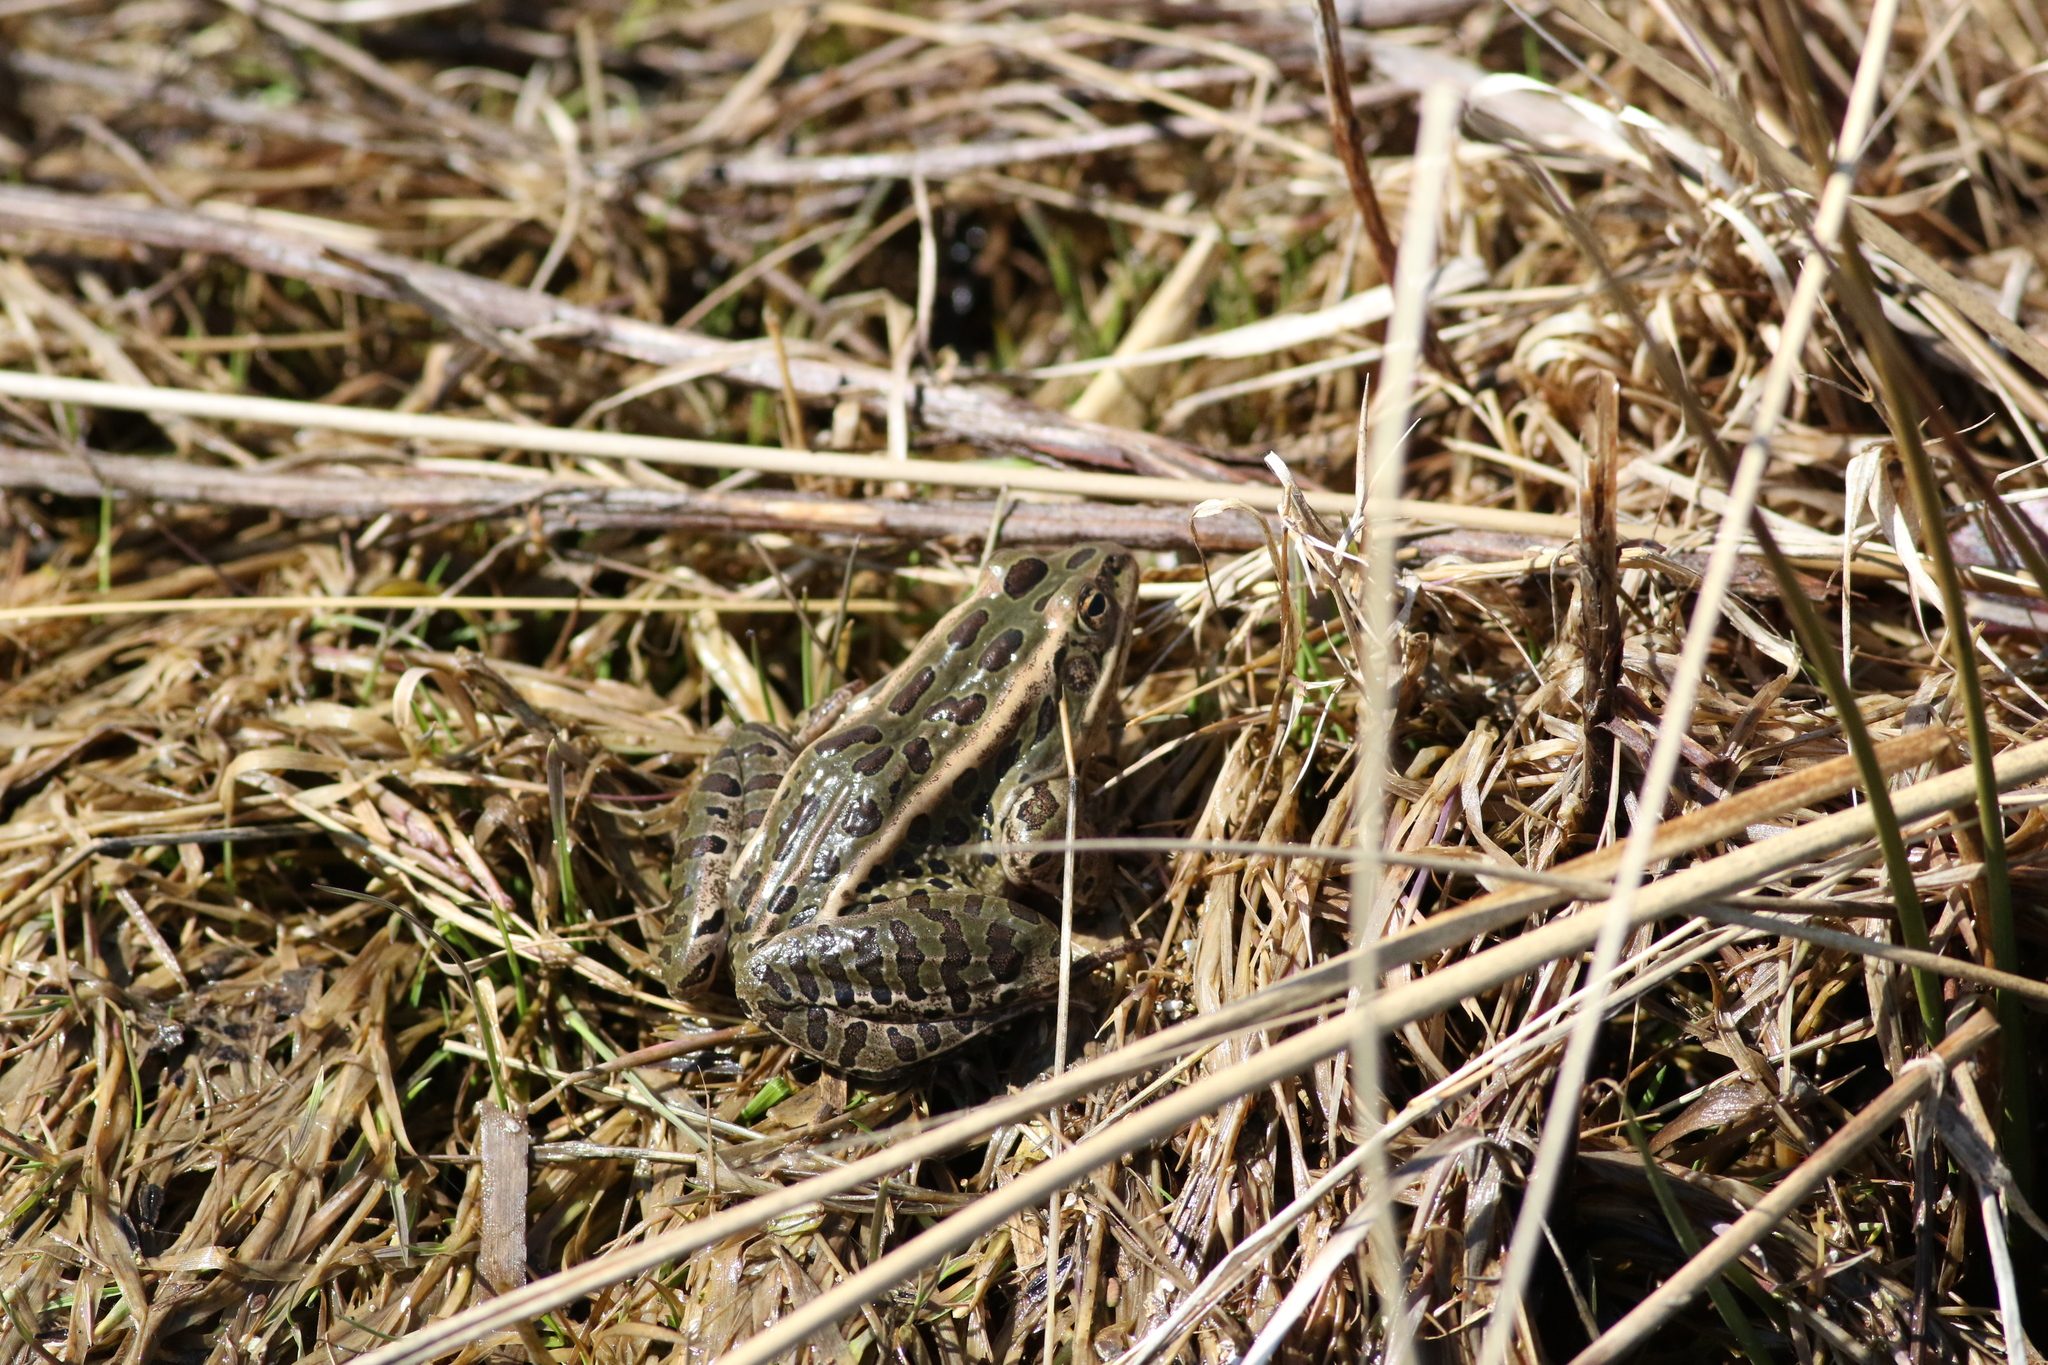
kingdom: Animalia
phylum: Chordata
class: Amphibia
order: Anura
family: Ranidae
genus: Lithobates
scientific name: Lithobates pipiens
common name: Northern leopard frog
